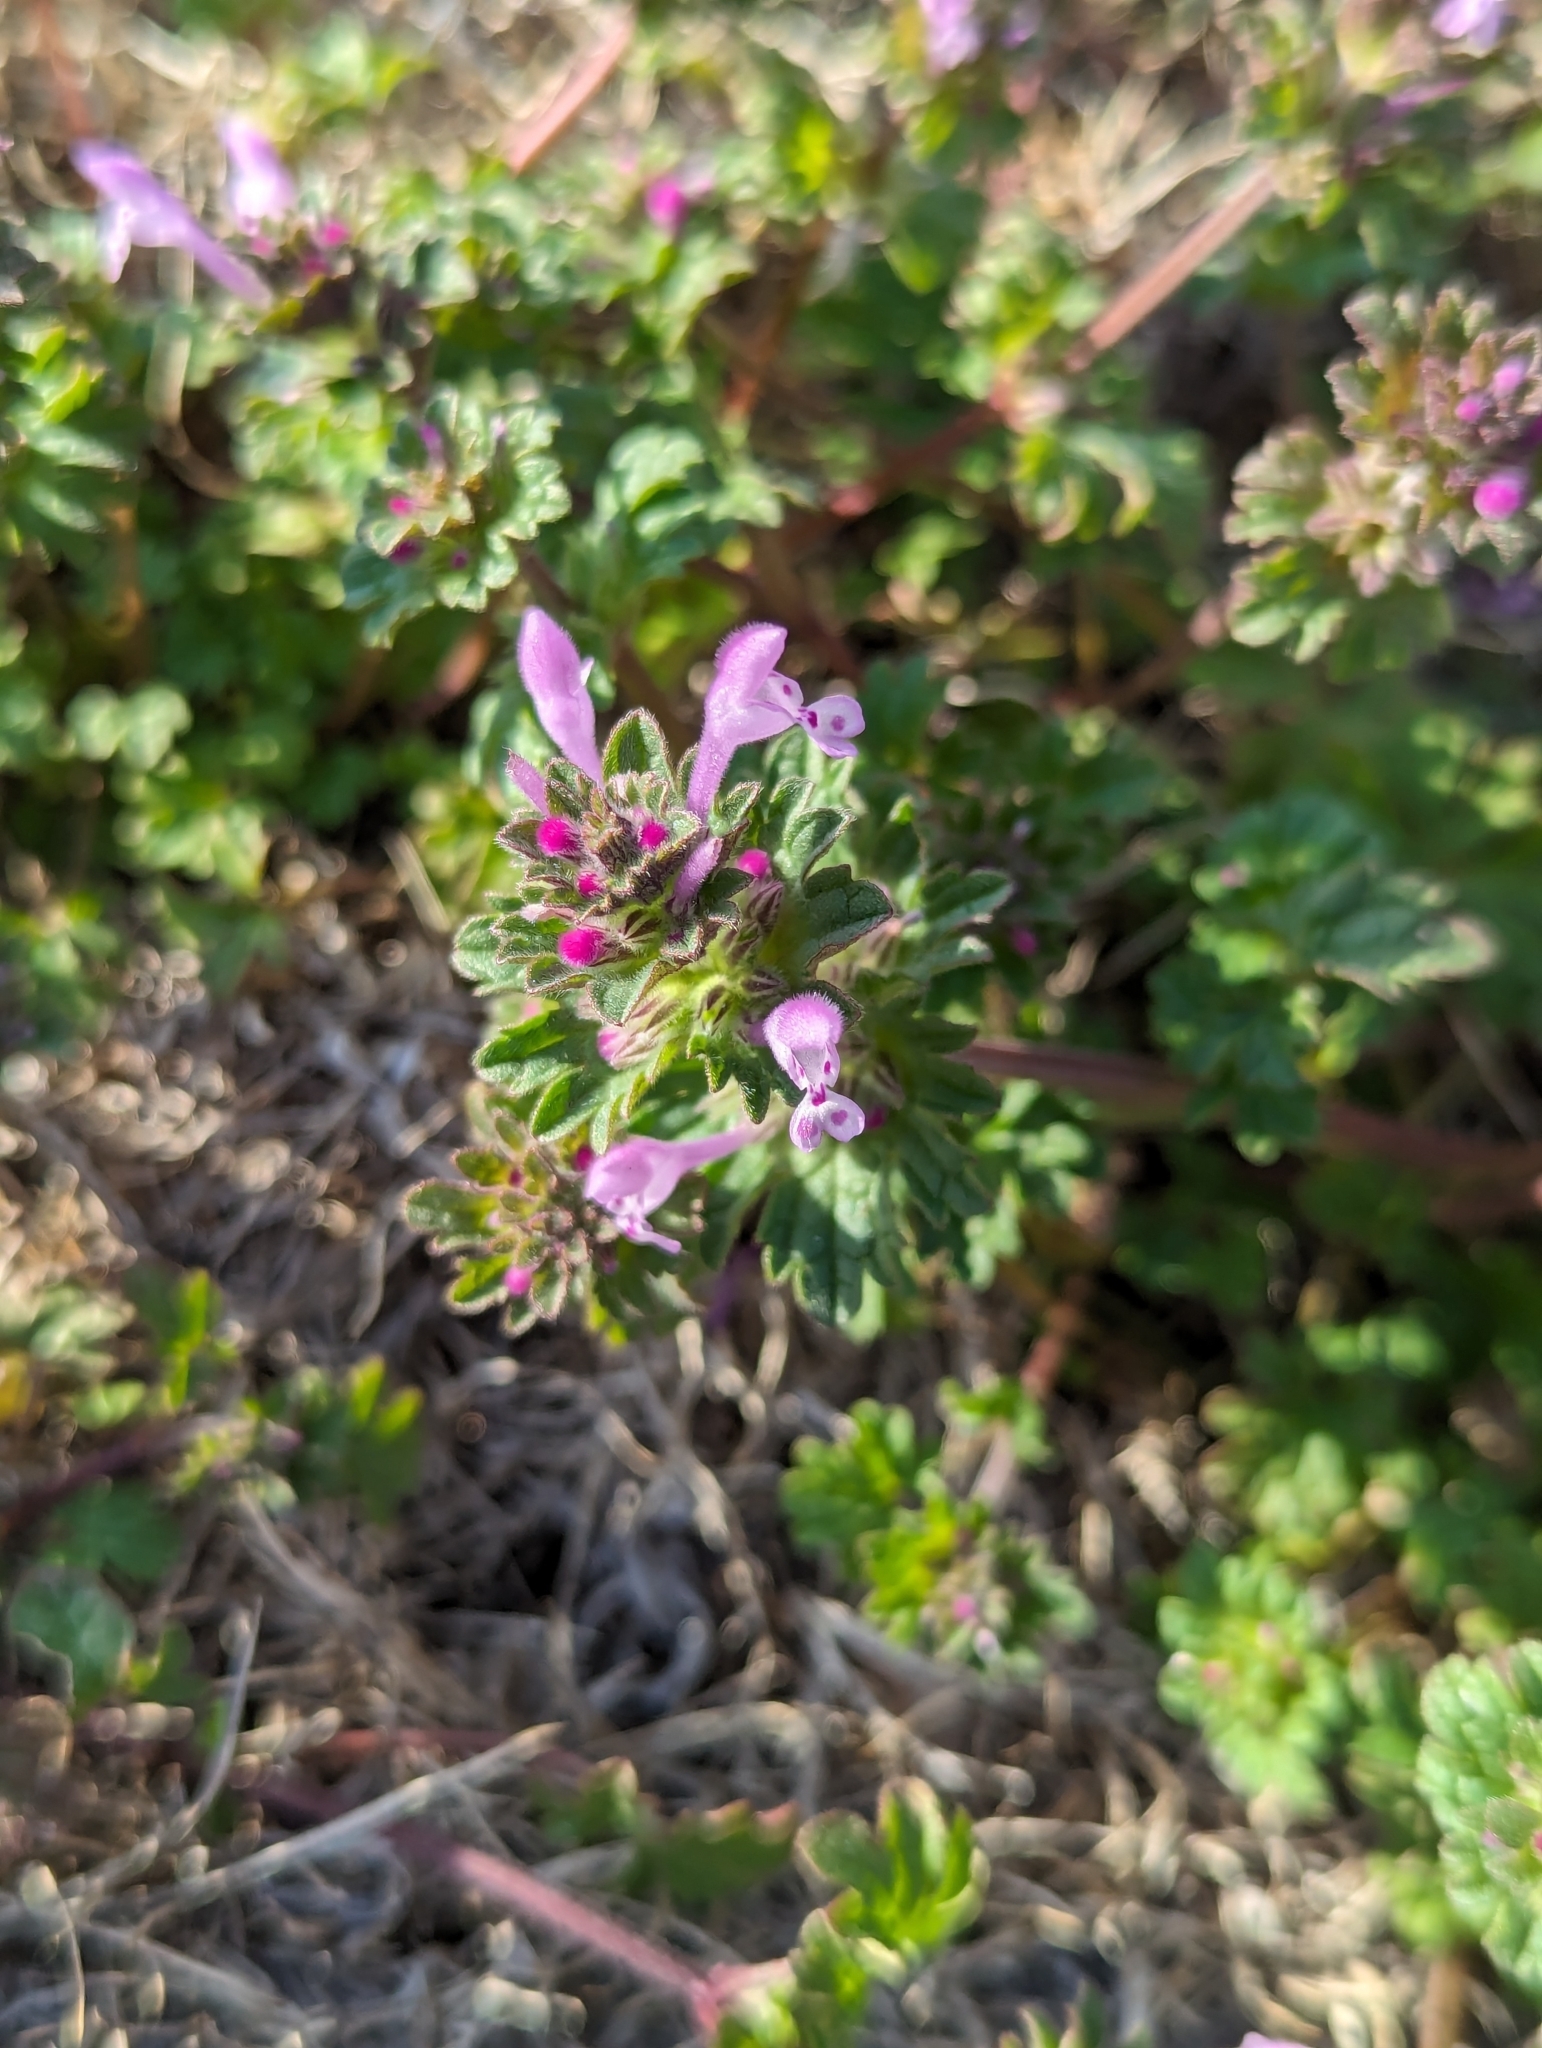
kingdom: Plantae
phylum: Tracheophyta
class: Magnoliopsida
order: Lamiales
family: Lamiaceae
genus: Lamium
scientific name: Lamium amplexicaule
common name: Henbit dead-nettle
